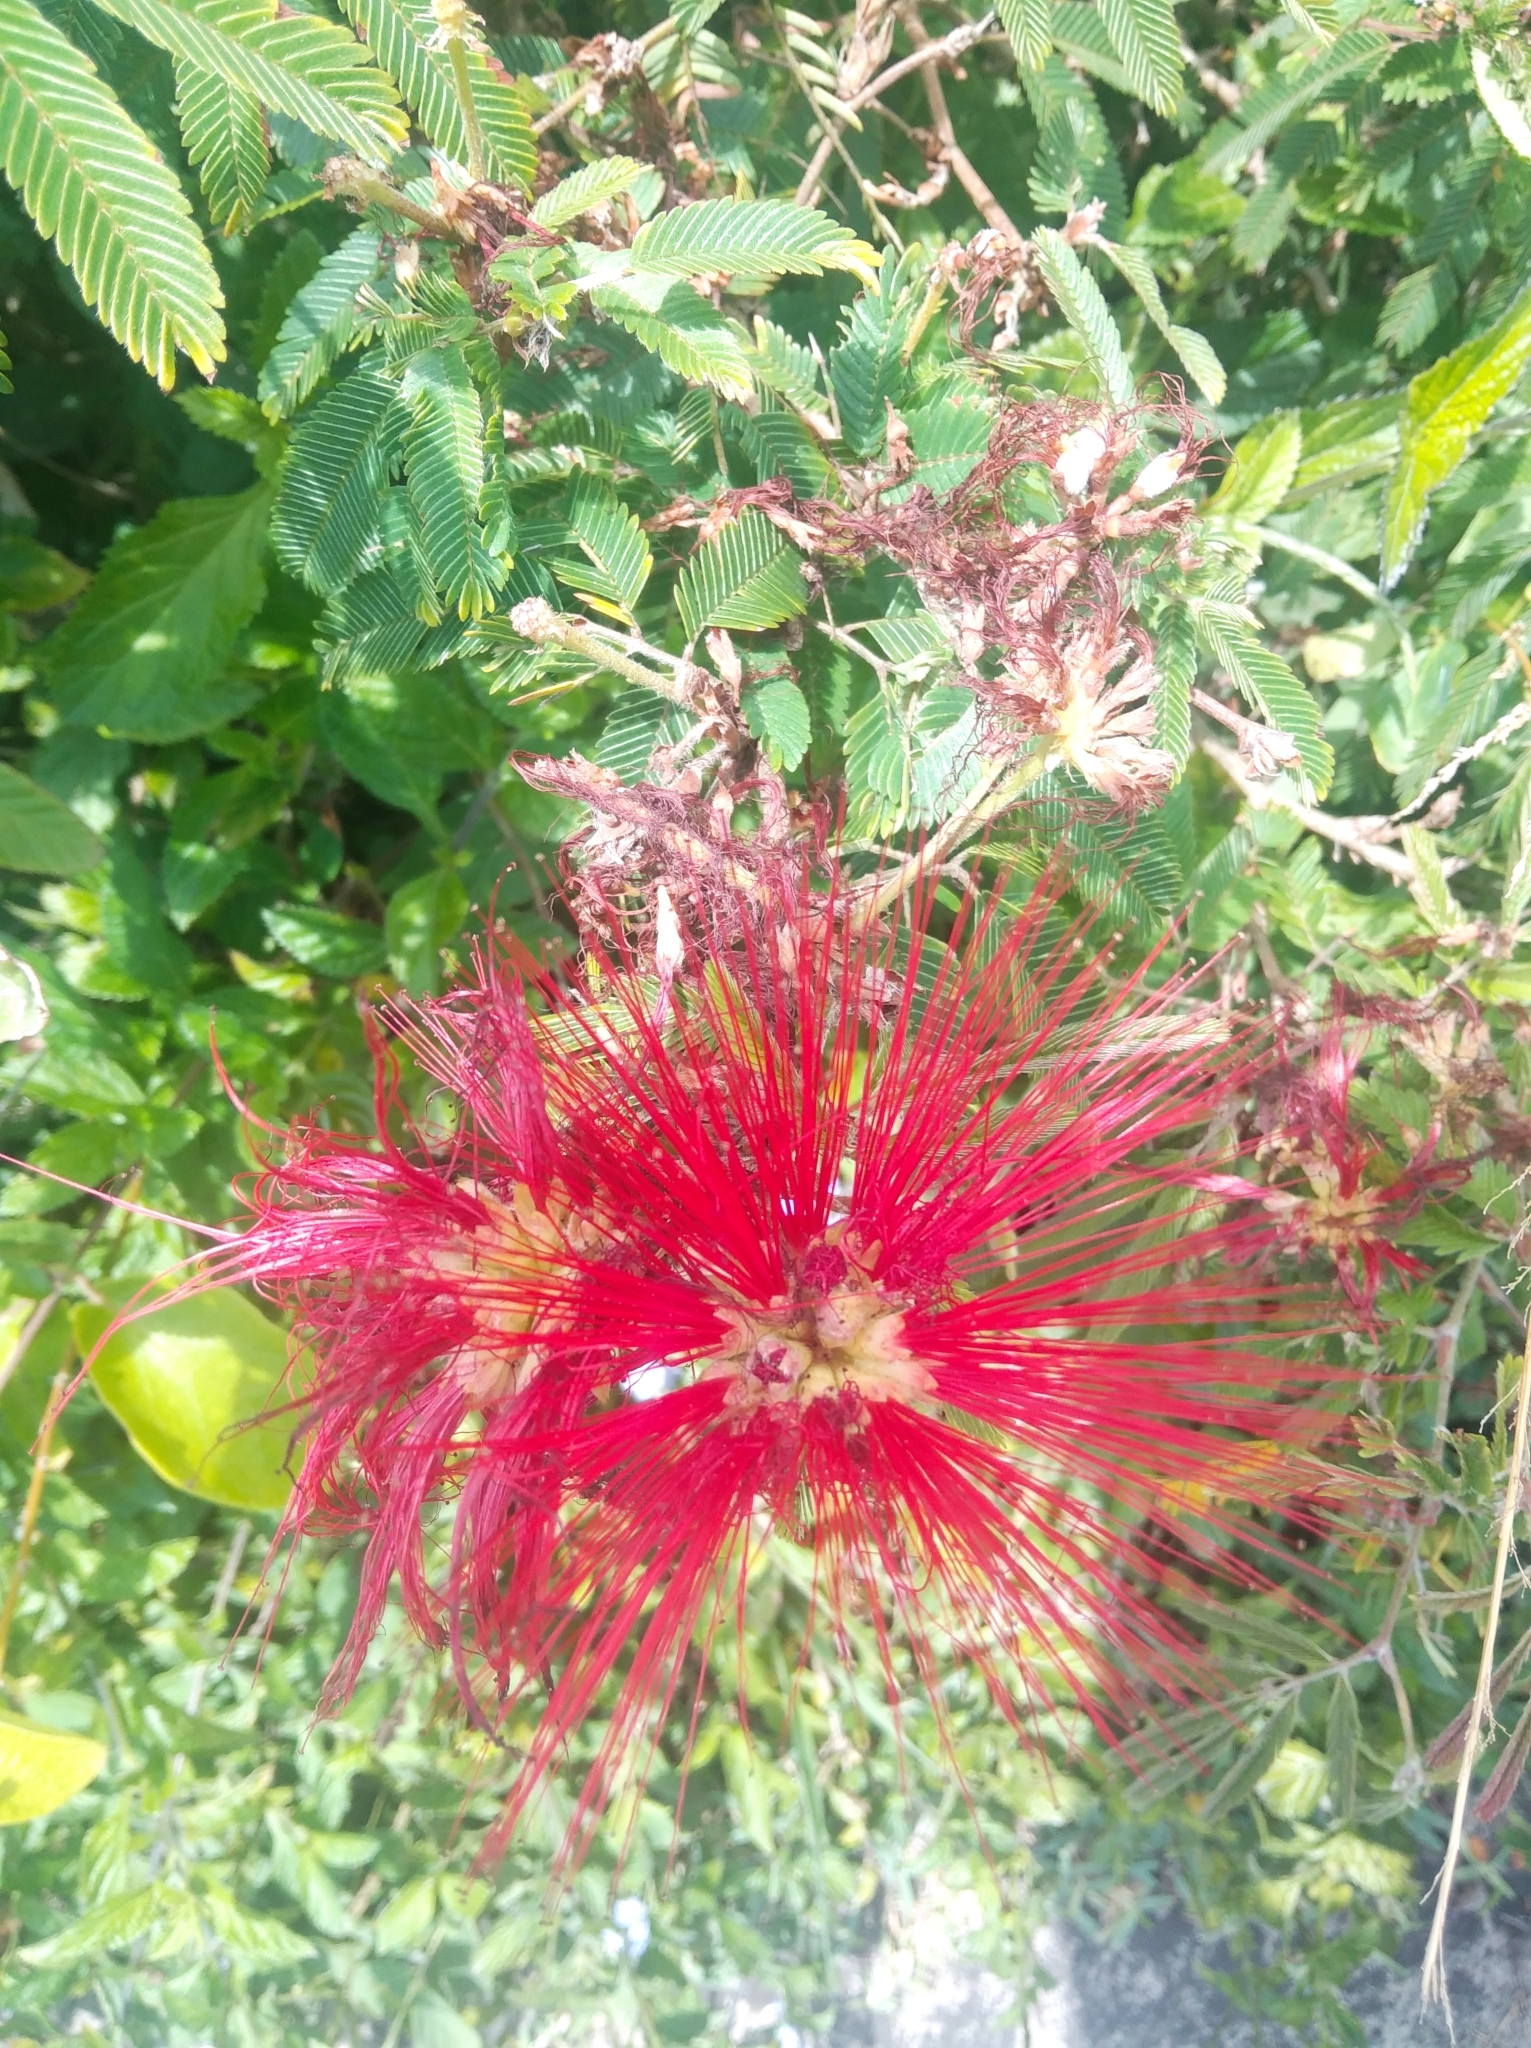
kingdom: Plantae
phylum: Tracheophyta
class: Magnoliopsida
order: Fabales
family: Fabaceae
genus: Calliandra
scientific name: Calliandra tweediei
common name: Mexican flamebush
